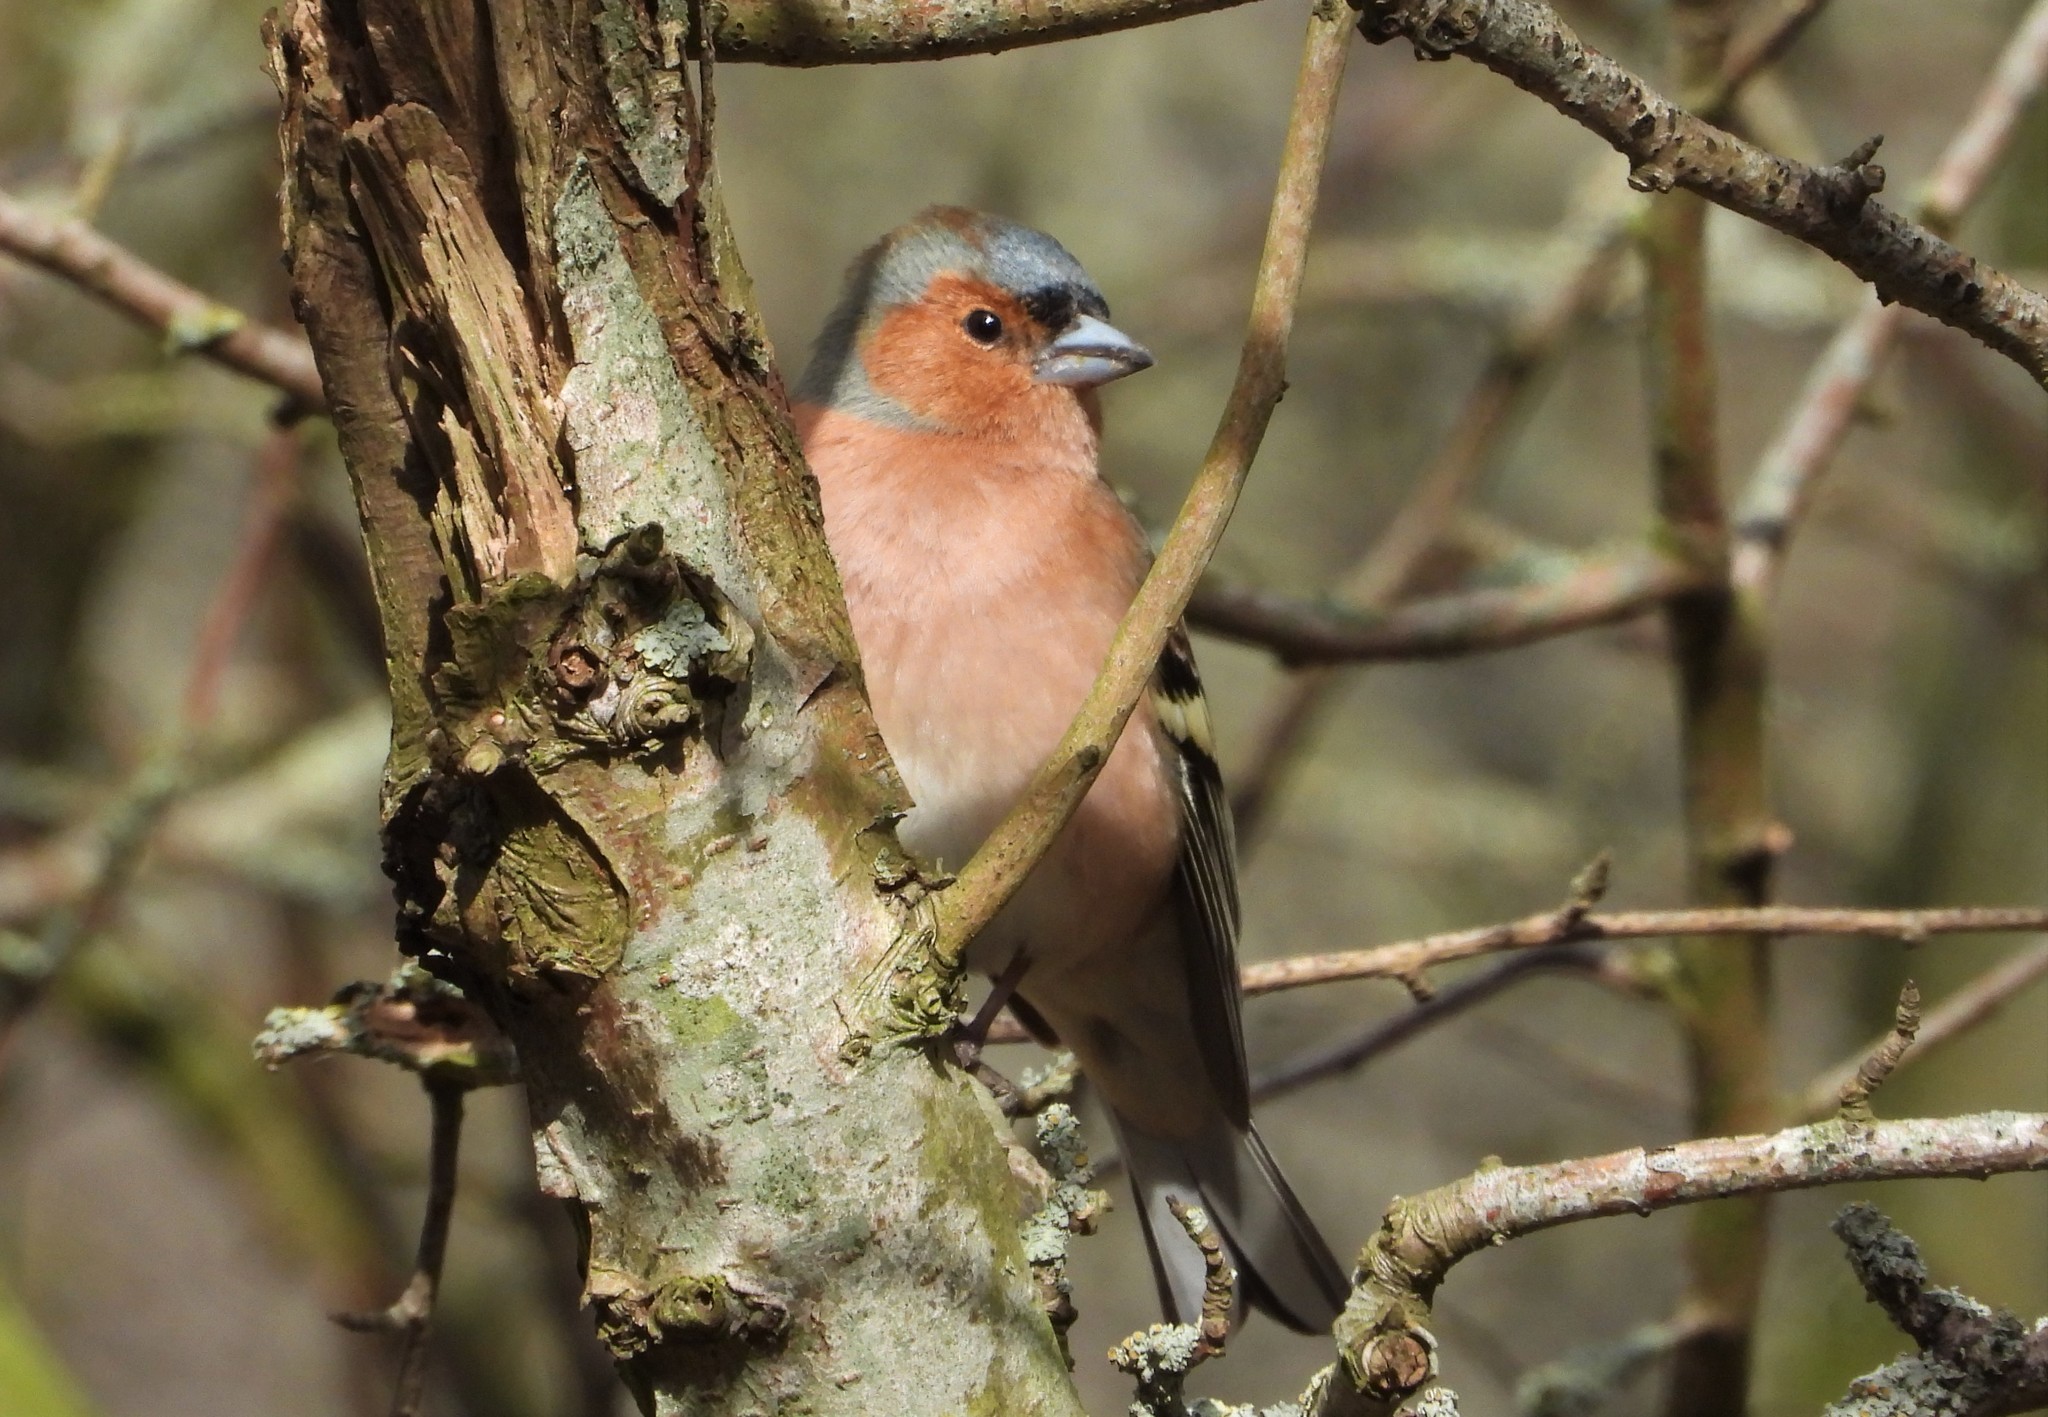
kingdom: Animalia
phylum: Chordata
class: Aves
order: Passeriformes
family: Fringillidae
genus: Fringilla
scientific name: Fringilla coelebs
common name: Common chaffinch
